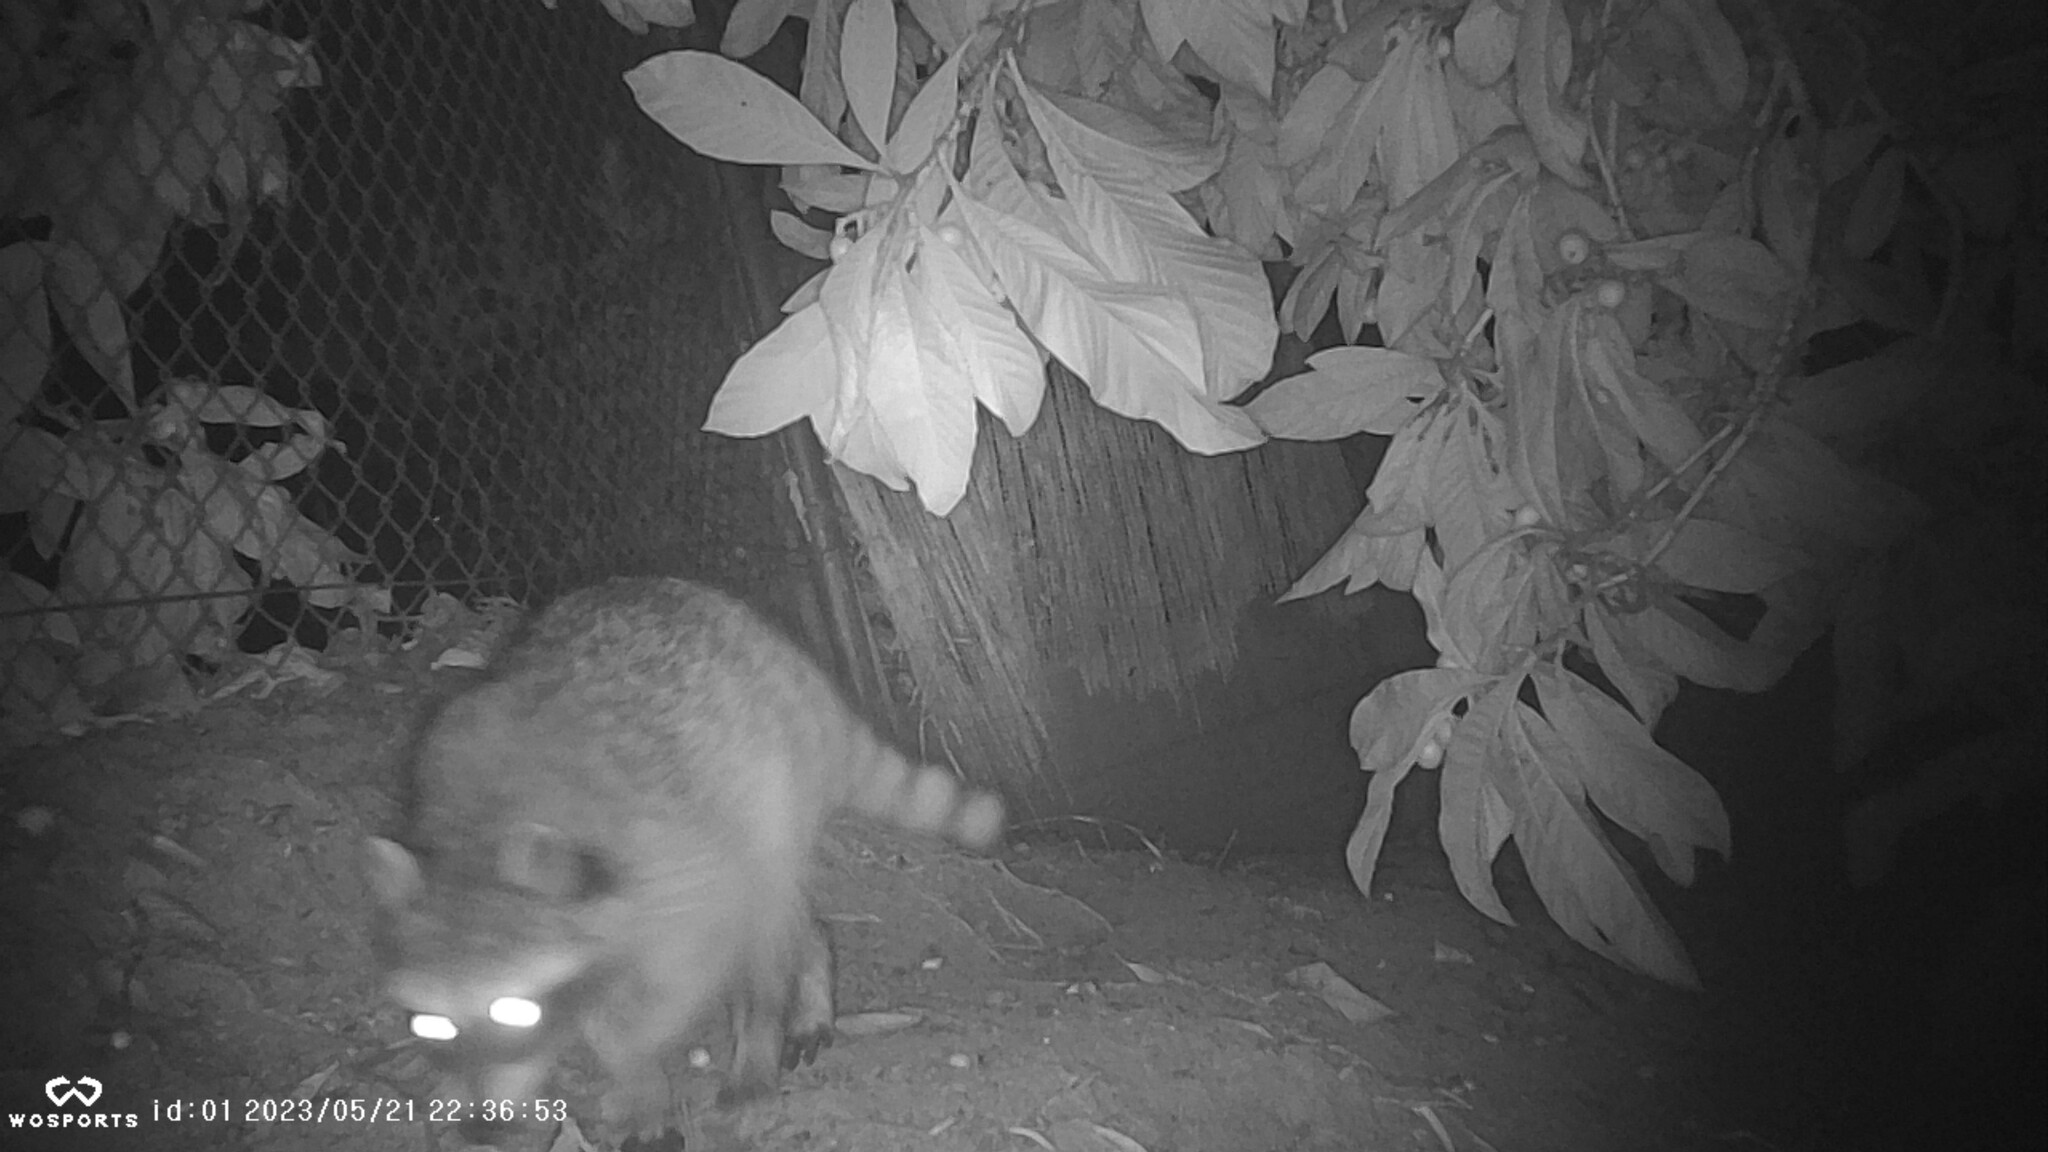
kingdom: Animalia
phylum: Chordata
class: Mammalia
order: Carnivora
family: Procyonidae
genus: Procyon
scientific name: Procyon lotor
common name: Raccoon
